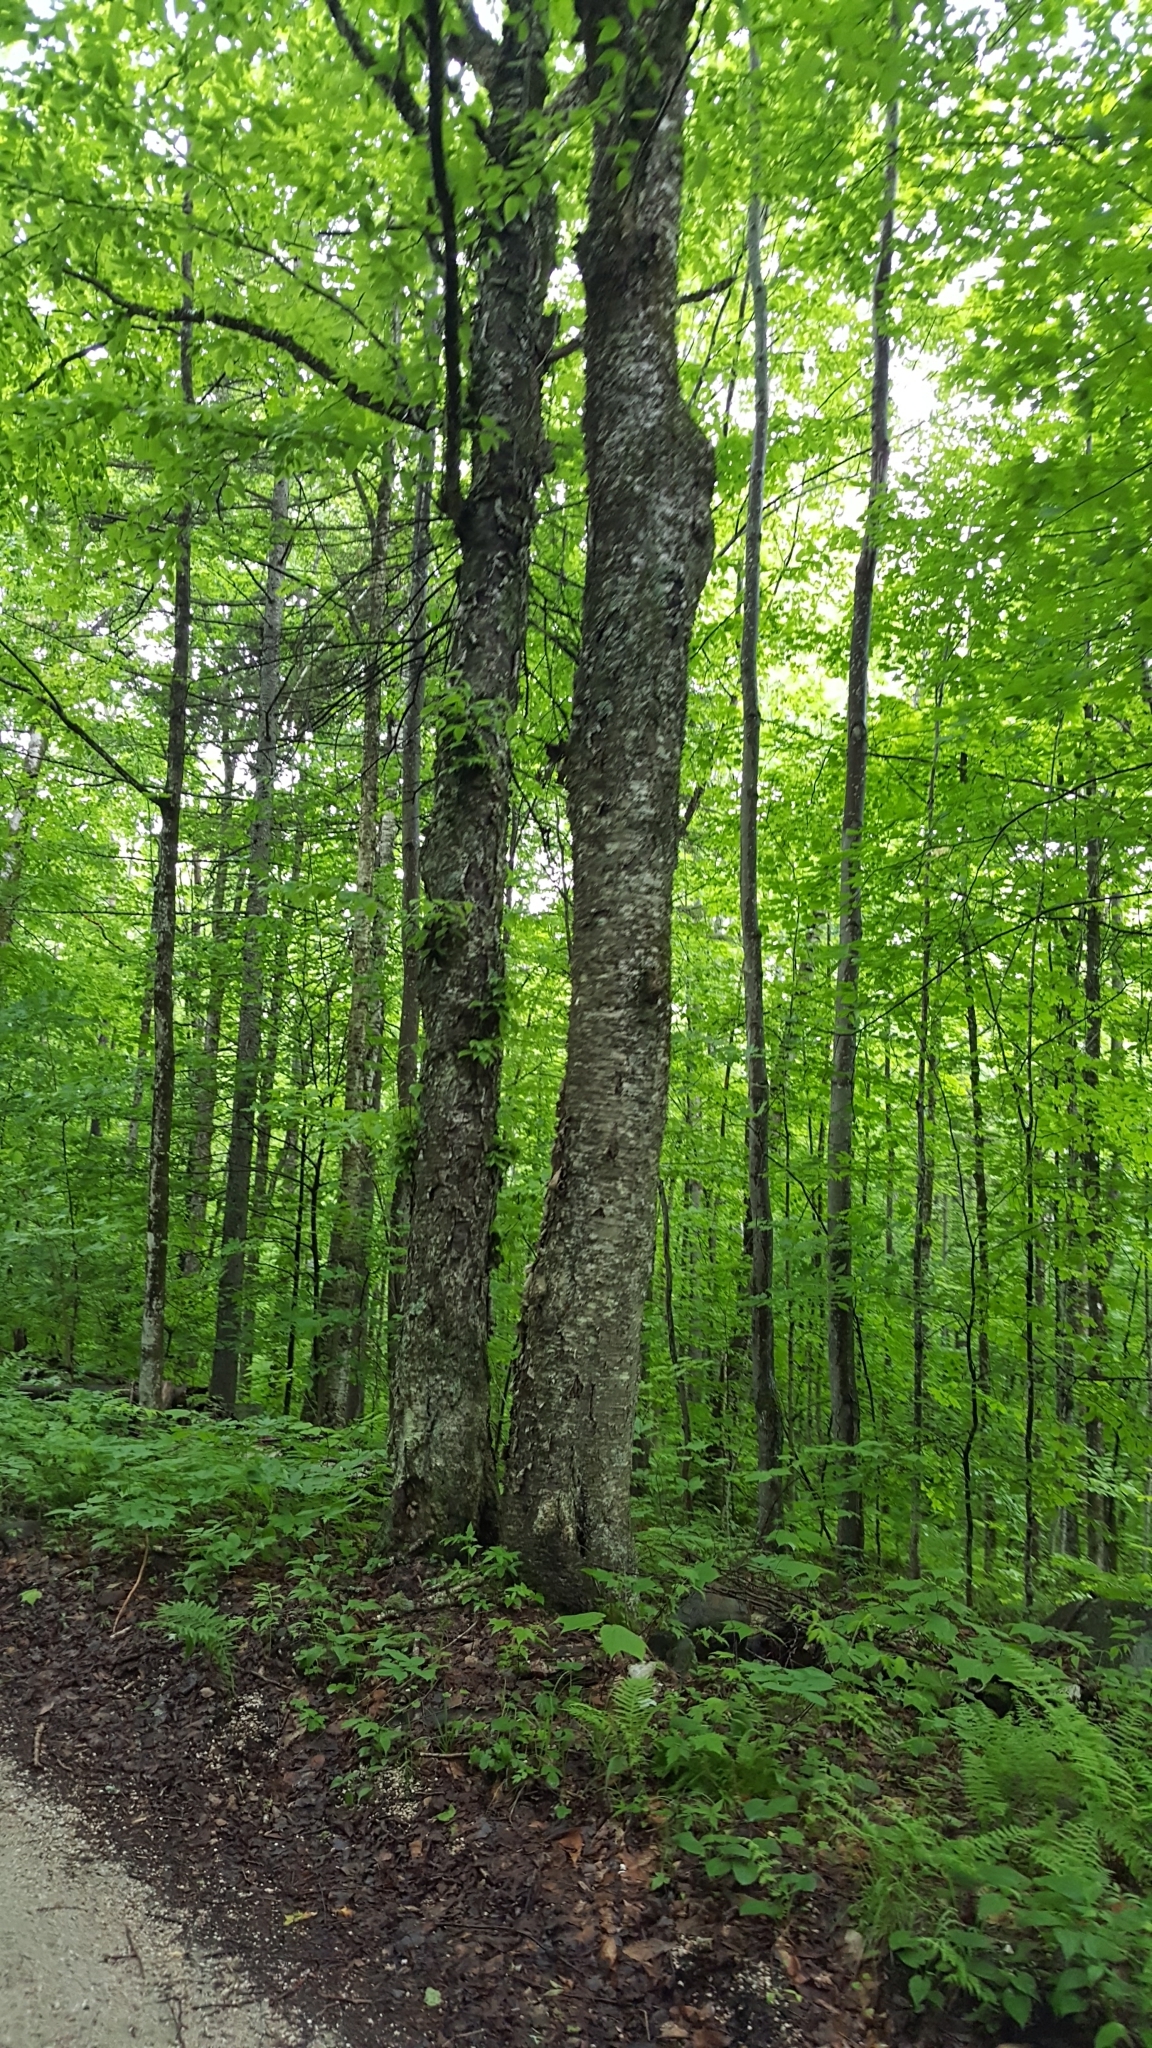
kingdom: Plantae
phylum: Tracheophyta
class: Magnoliopsida
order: Fagales
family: Betulaceae
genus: Betula
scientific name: Betula alleghaniensis
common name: Yellow birch
